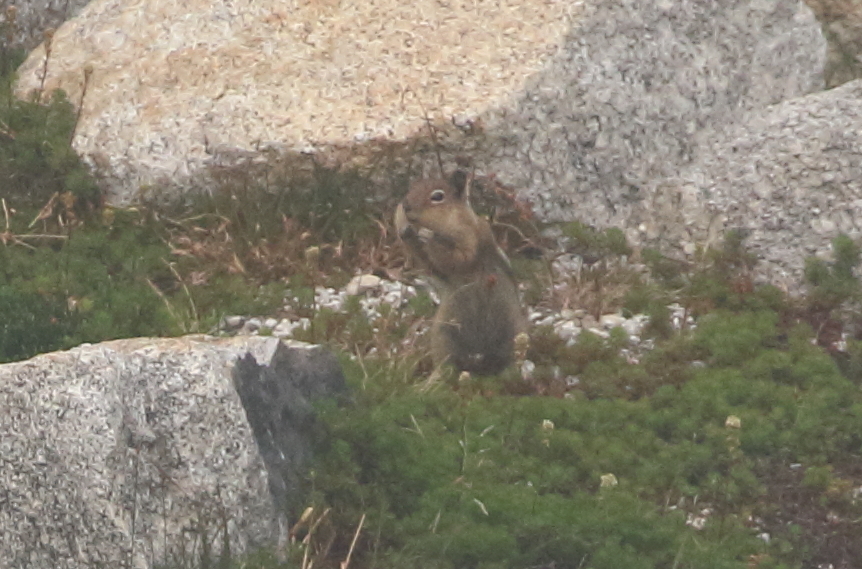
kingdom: Animalia
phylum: Chordata
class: Mammalia
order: Rodentia
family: Sciuridae
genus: Callospermophilus
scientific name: Callospermophilus saturatus
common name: Cascade golden-mantled ground squirrel
